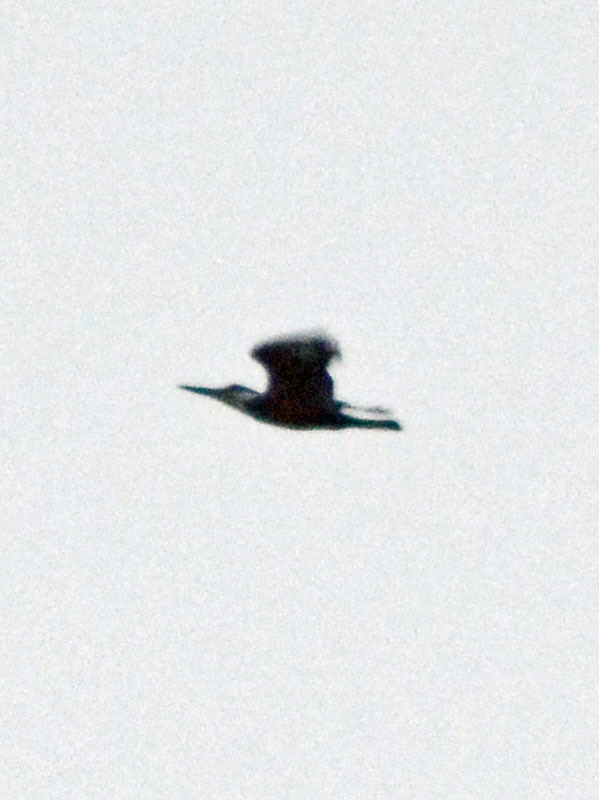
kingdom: Animalia
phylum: Chordata
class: Aves
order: Coraciiformes
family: Alcedinidae
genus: Megaceryle
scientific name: Megaceryle torquata
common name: Ringed kingfisher
